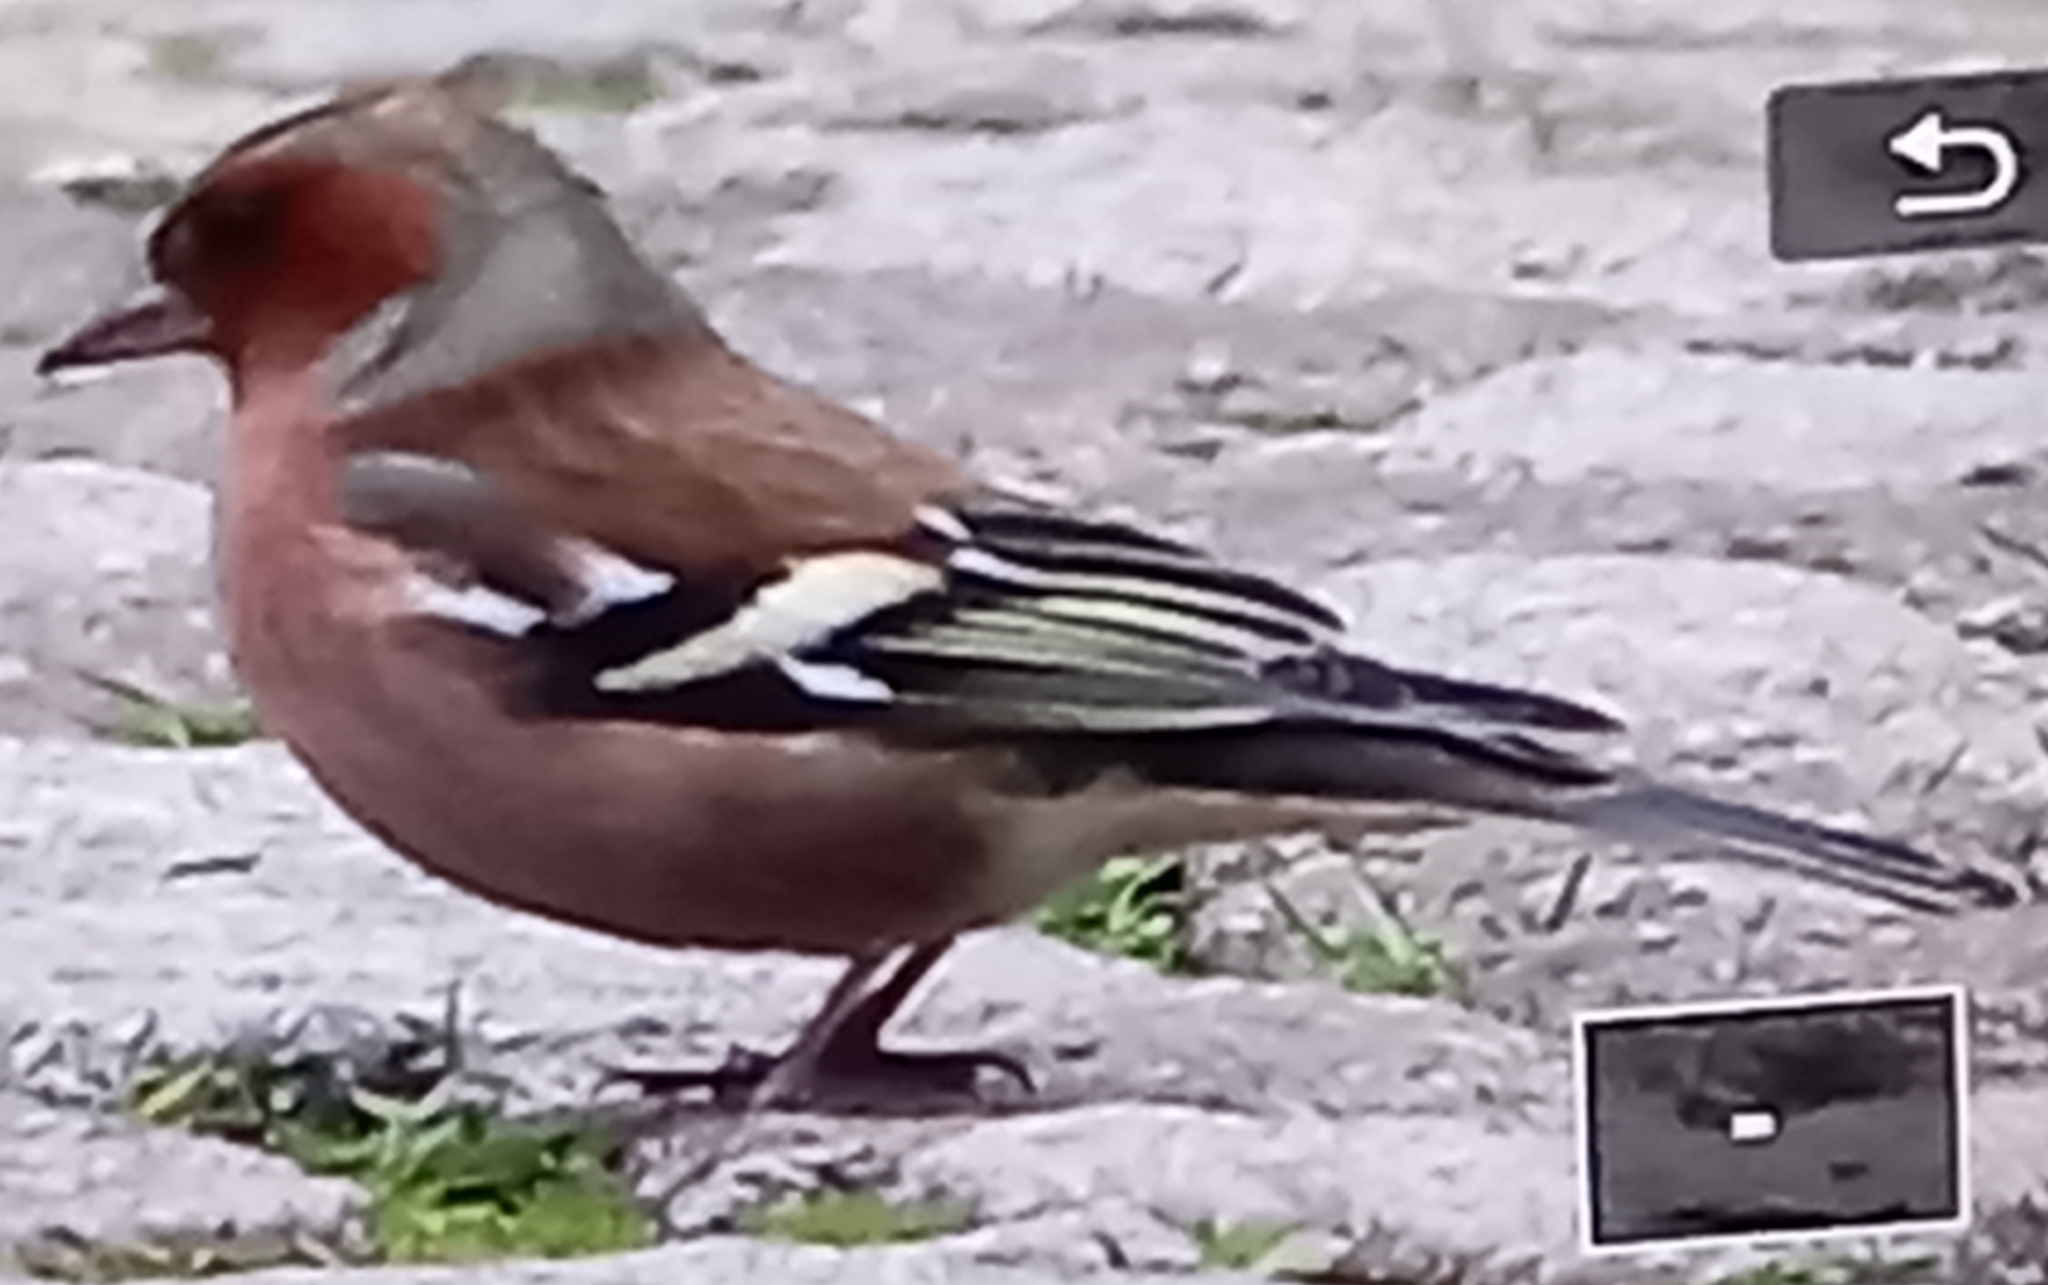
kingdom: Animalia
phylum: Chordata
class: Aves
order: Passeriformes
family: Fringillidae
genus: Fringilla
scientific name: Fringilla coelebs
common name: Common chaffinch
